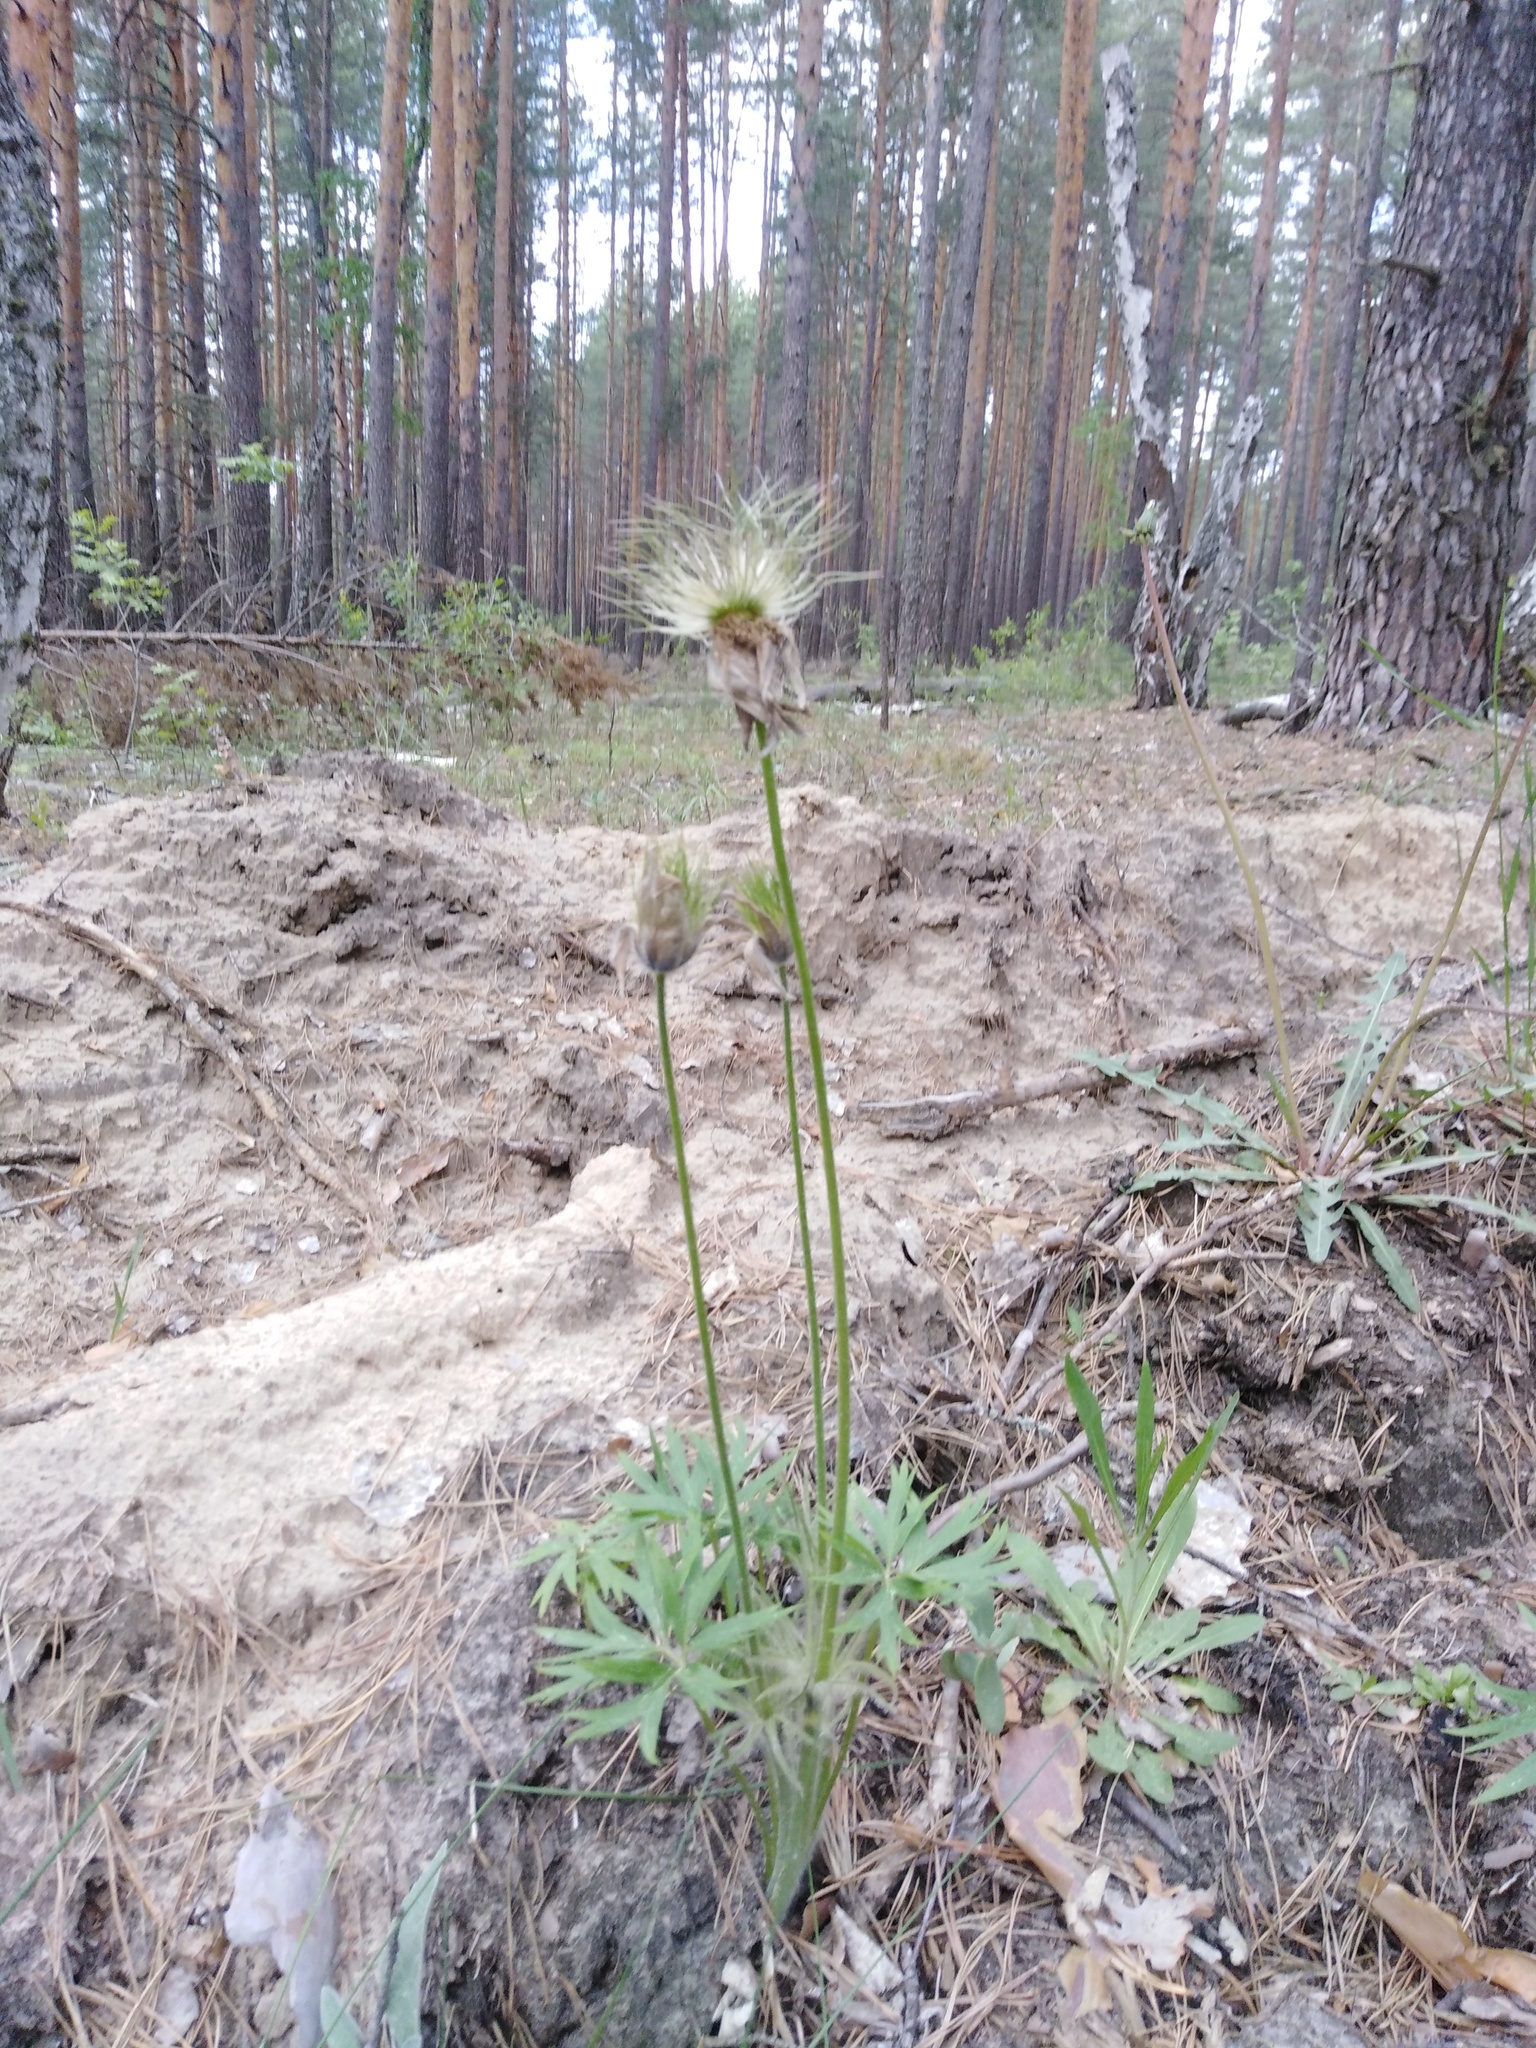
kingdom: Plantae
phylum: Tracheophyta
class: Magnoliopsida
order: Ranunculales
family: Ranunculaceae
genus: Pulsatilla
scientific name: Pulsatilla patens
